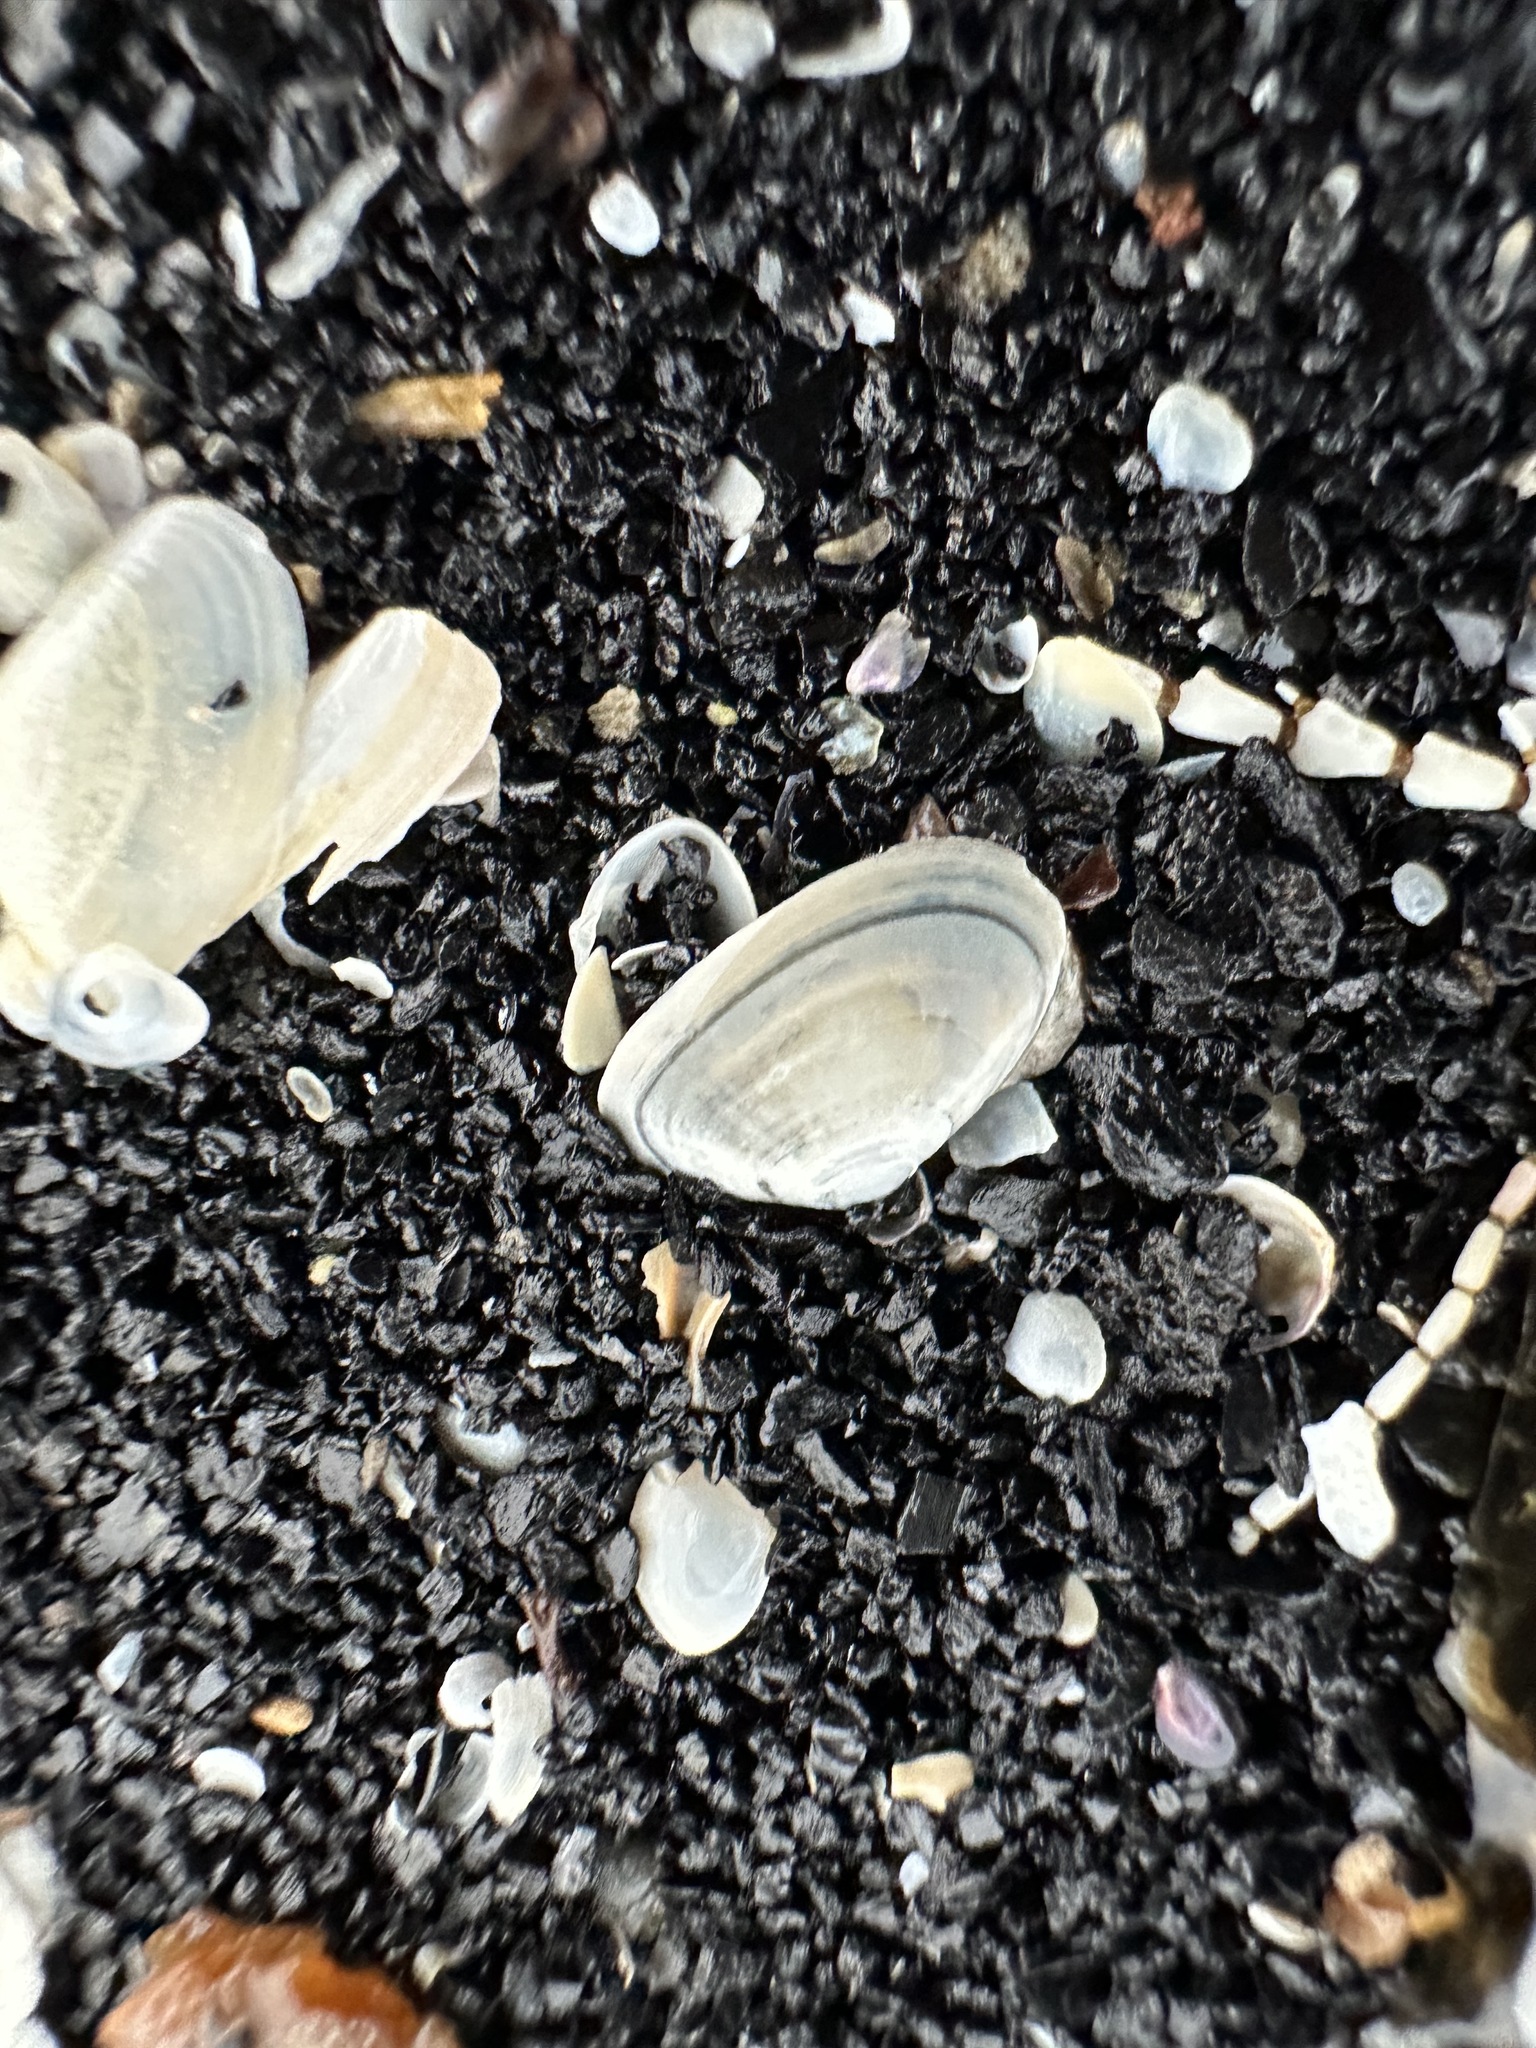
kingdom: Animalia
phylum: Mollusca
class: Bivalvia
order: Cardiida
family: Tellinidae
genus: Ameritella
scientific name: Ameritella agilis
